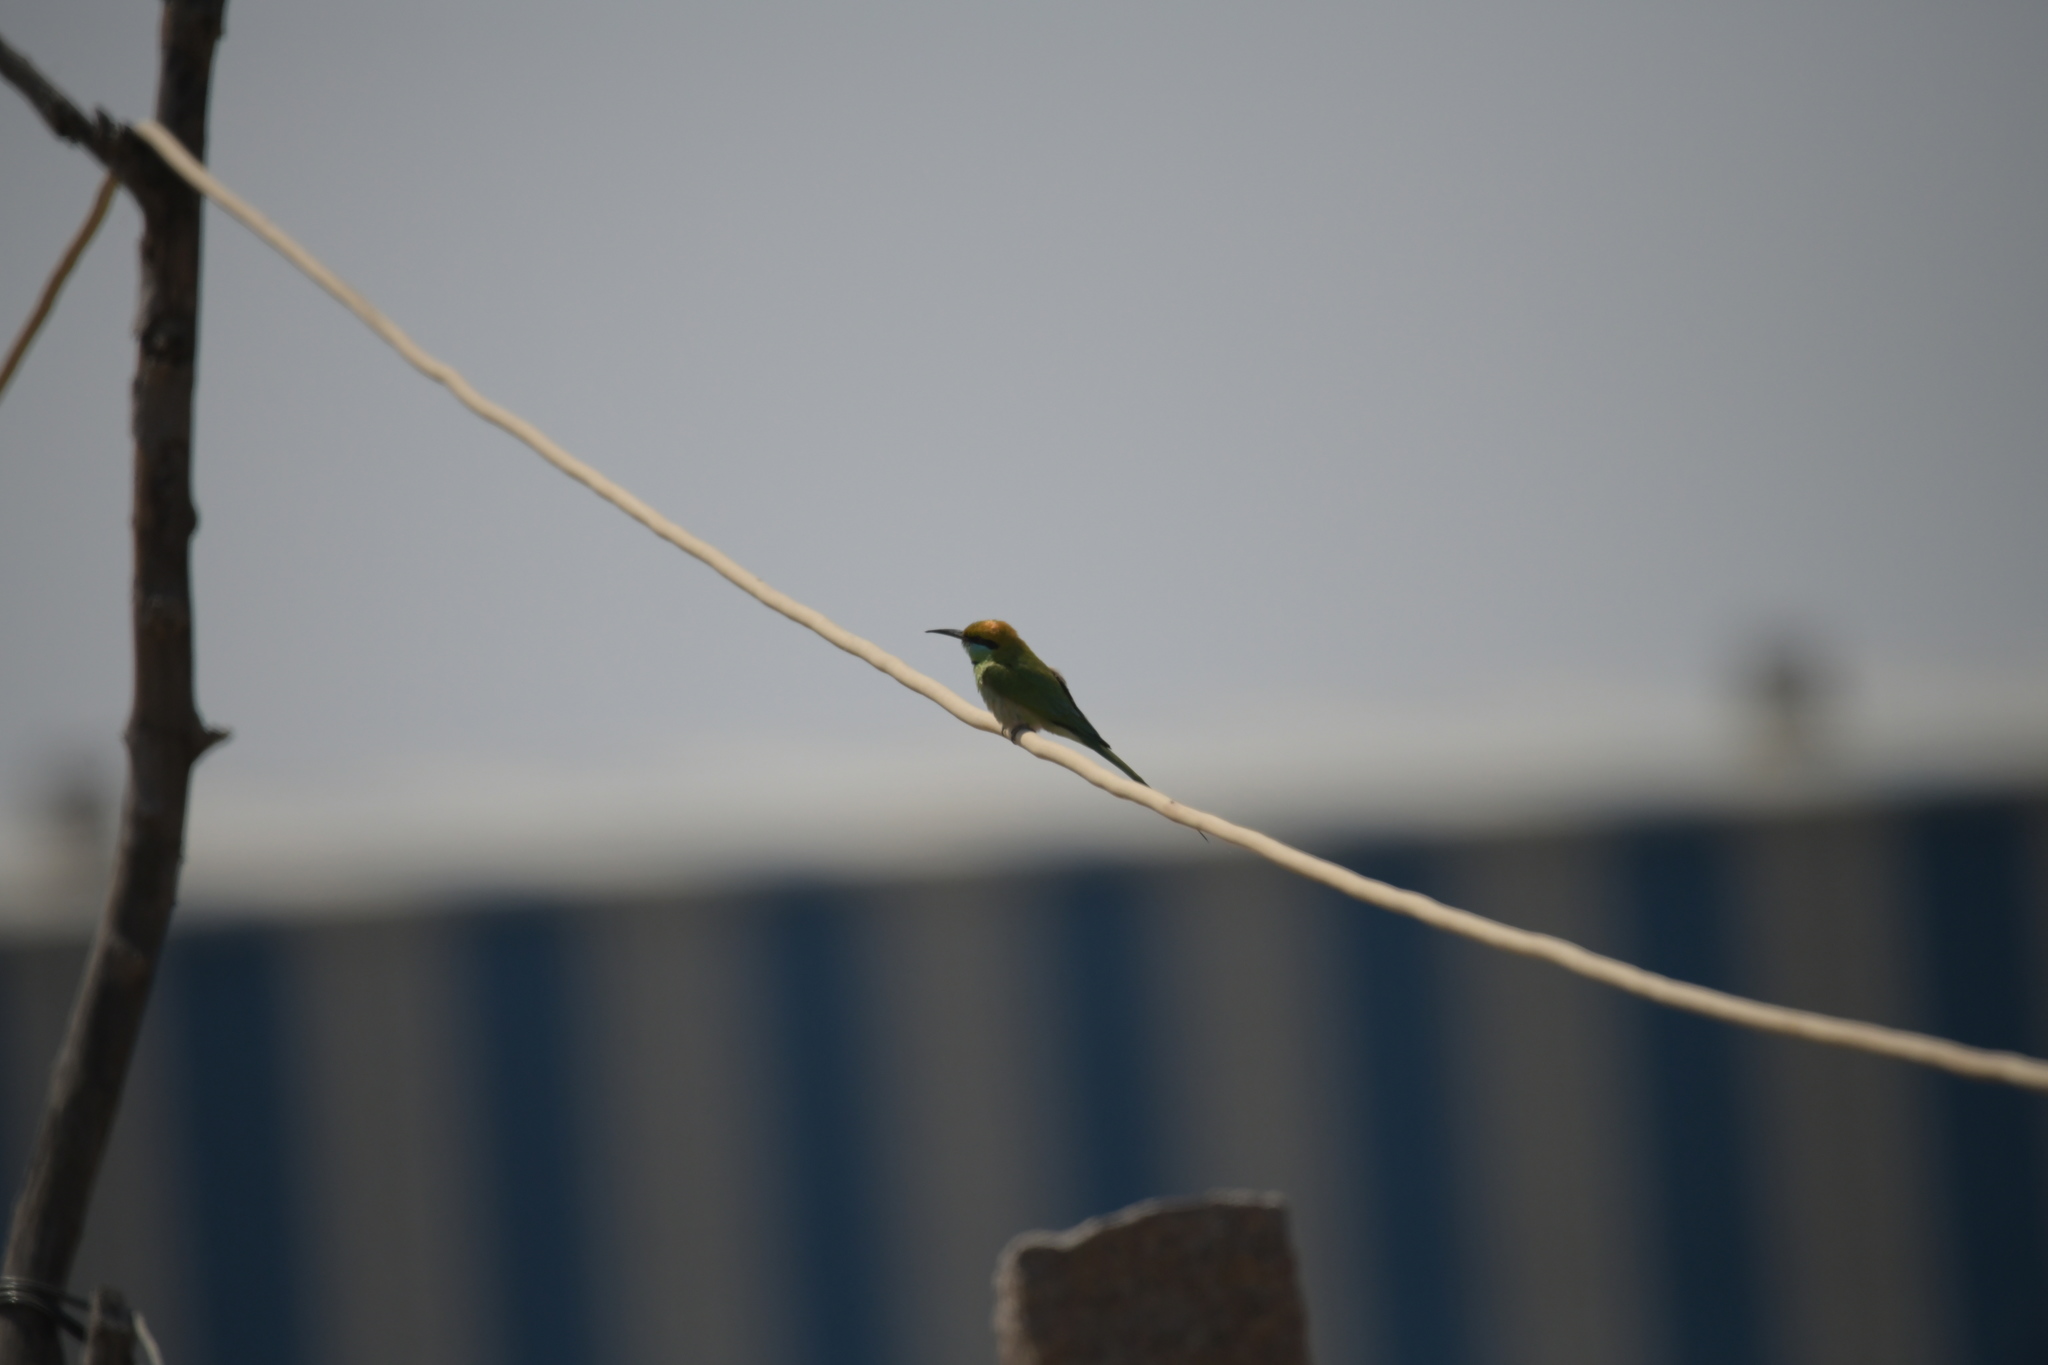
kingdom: Animalia
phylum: Chordata
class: Aves
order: Coraciiformes
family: Meropidae
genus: Merops
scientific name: Merops orientalis
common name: Green bee-eater
